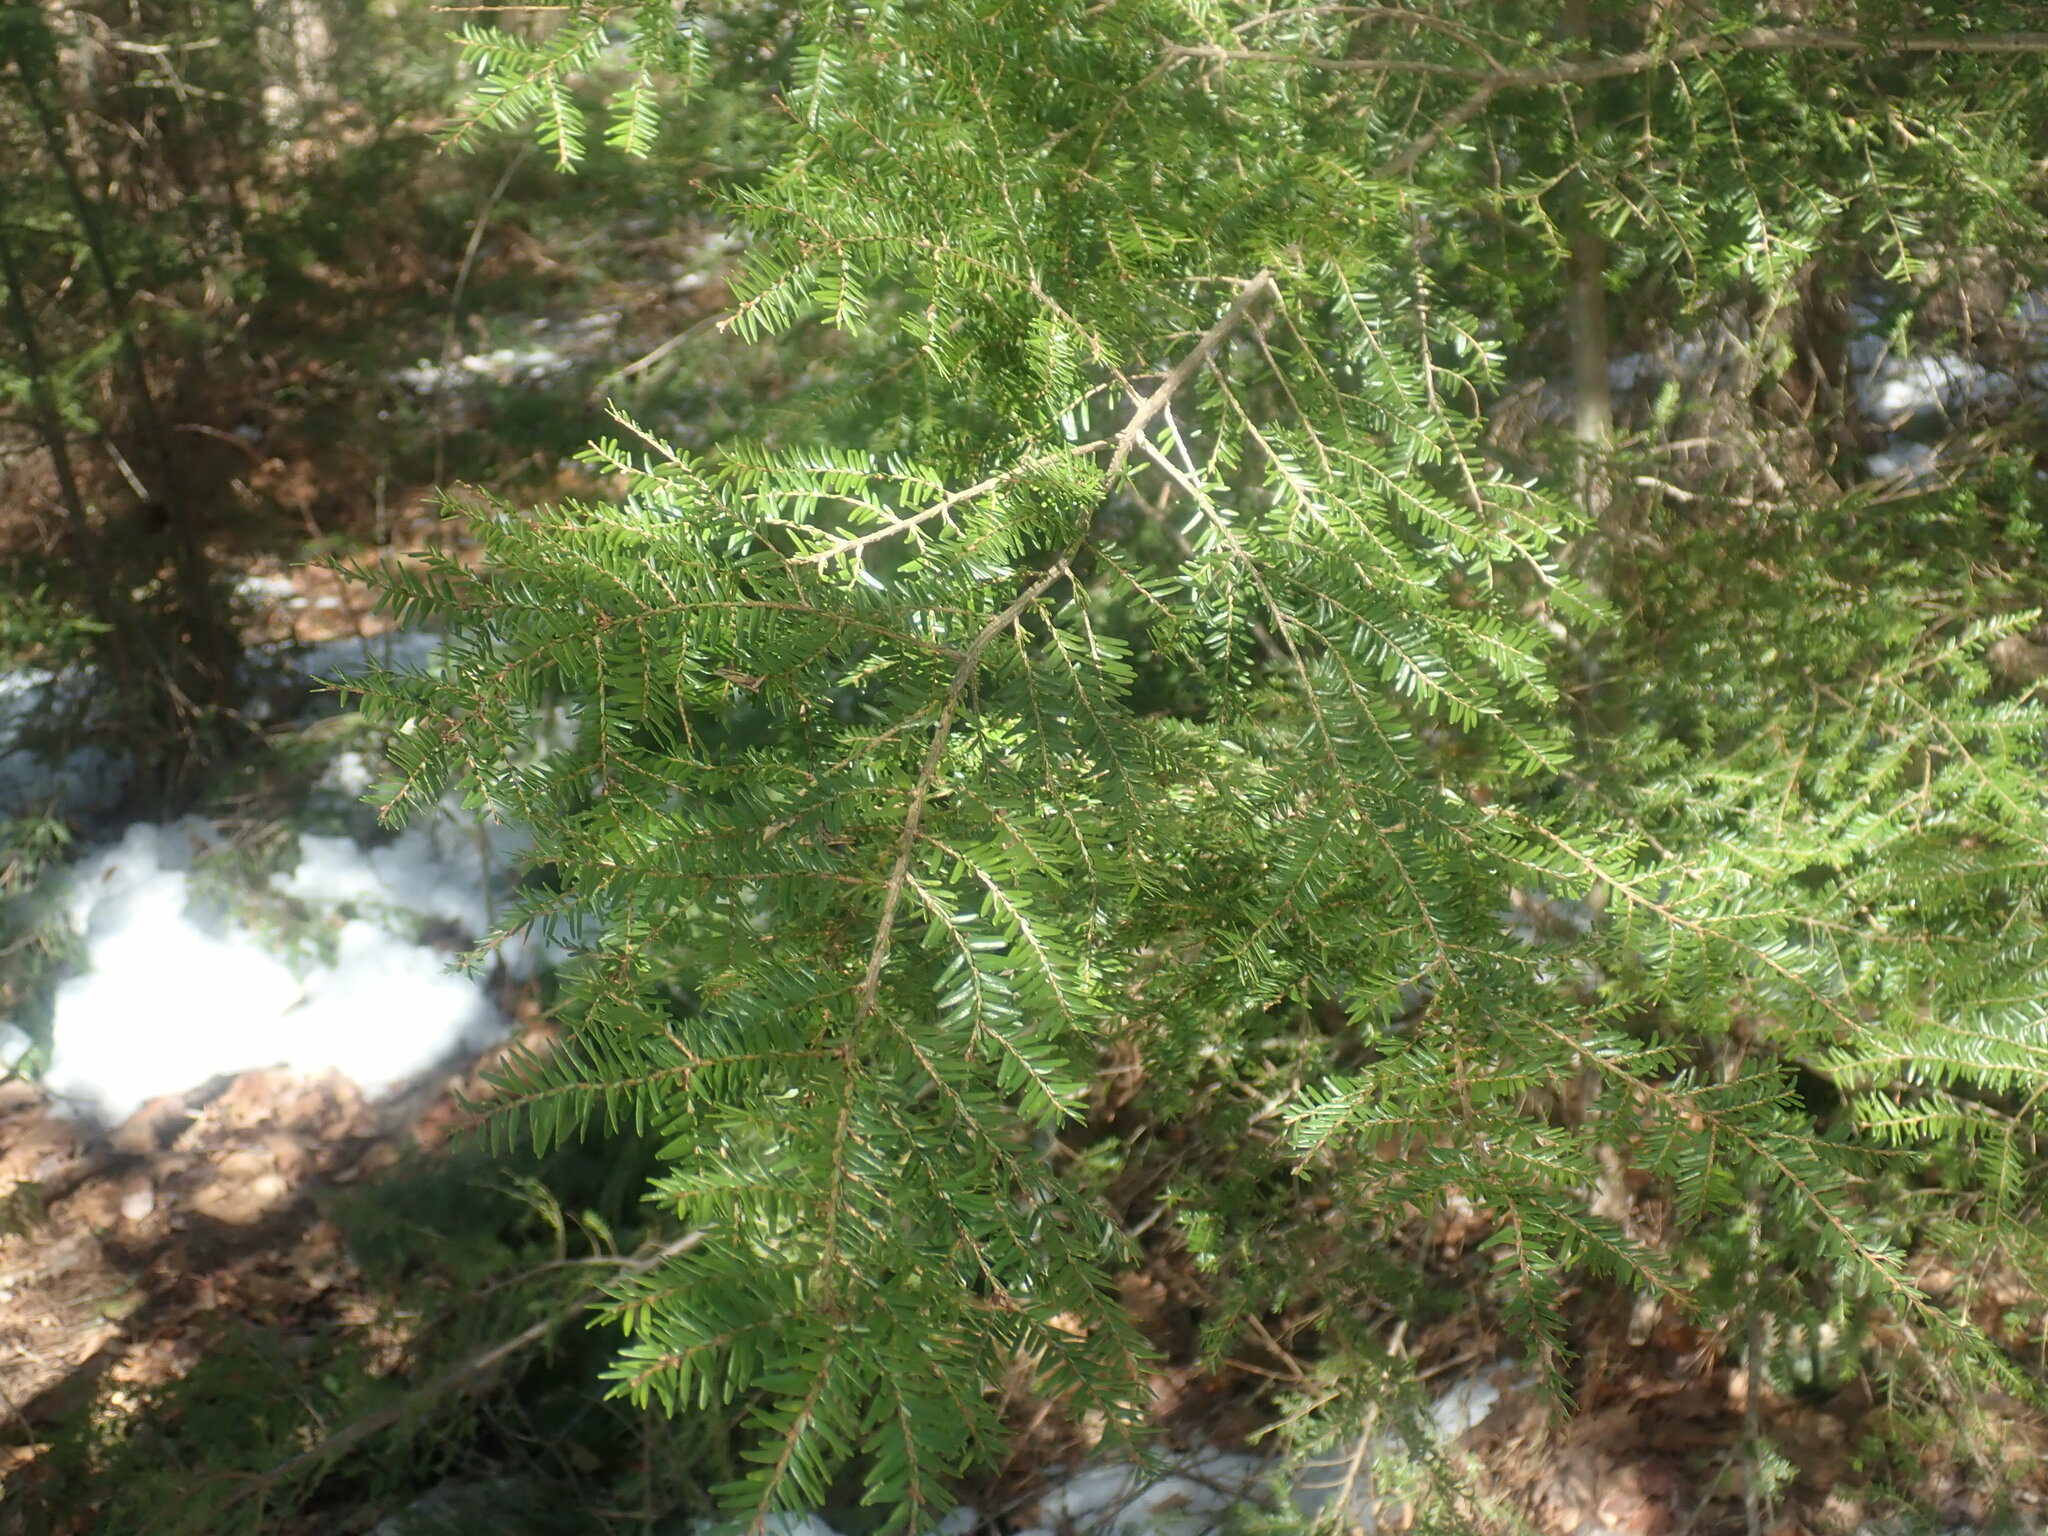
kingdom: Plantae
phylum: Tracheophyta
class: Pinopsida
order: Pinales
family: Pinaceae
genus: Tsuga
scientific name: Tsuga canadensis
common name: Eastern hemlock
